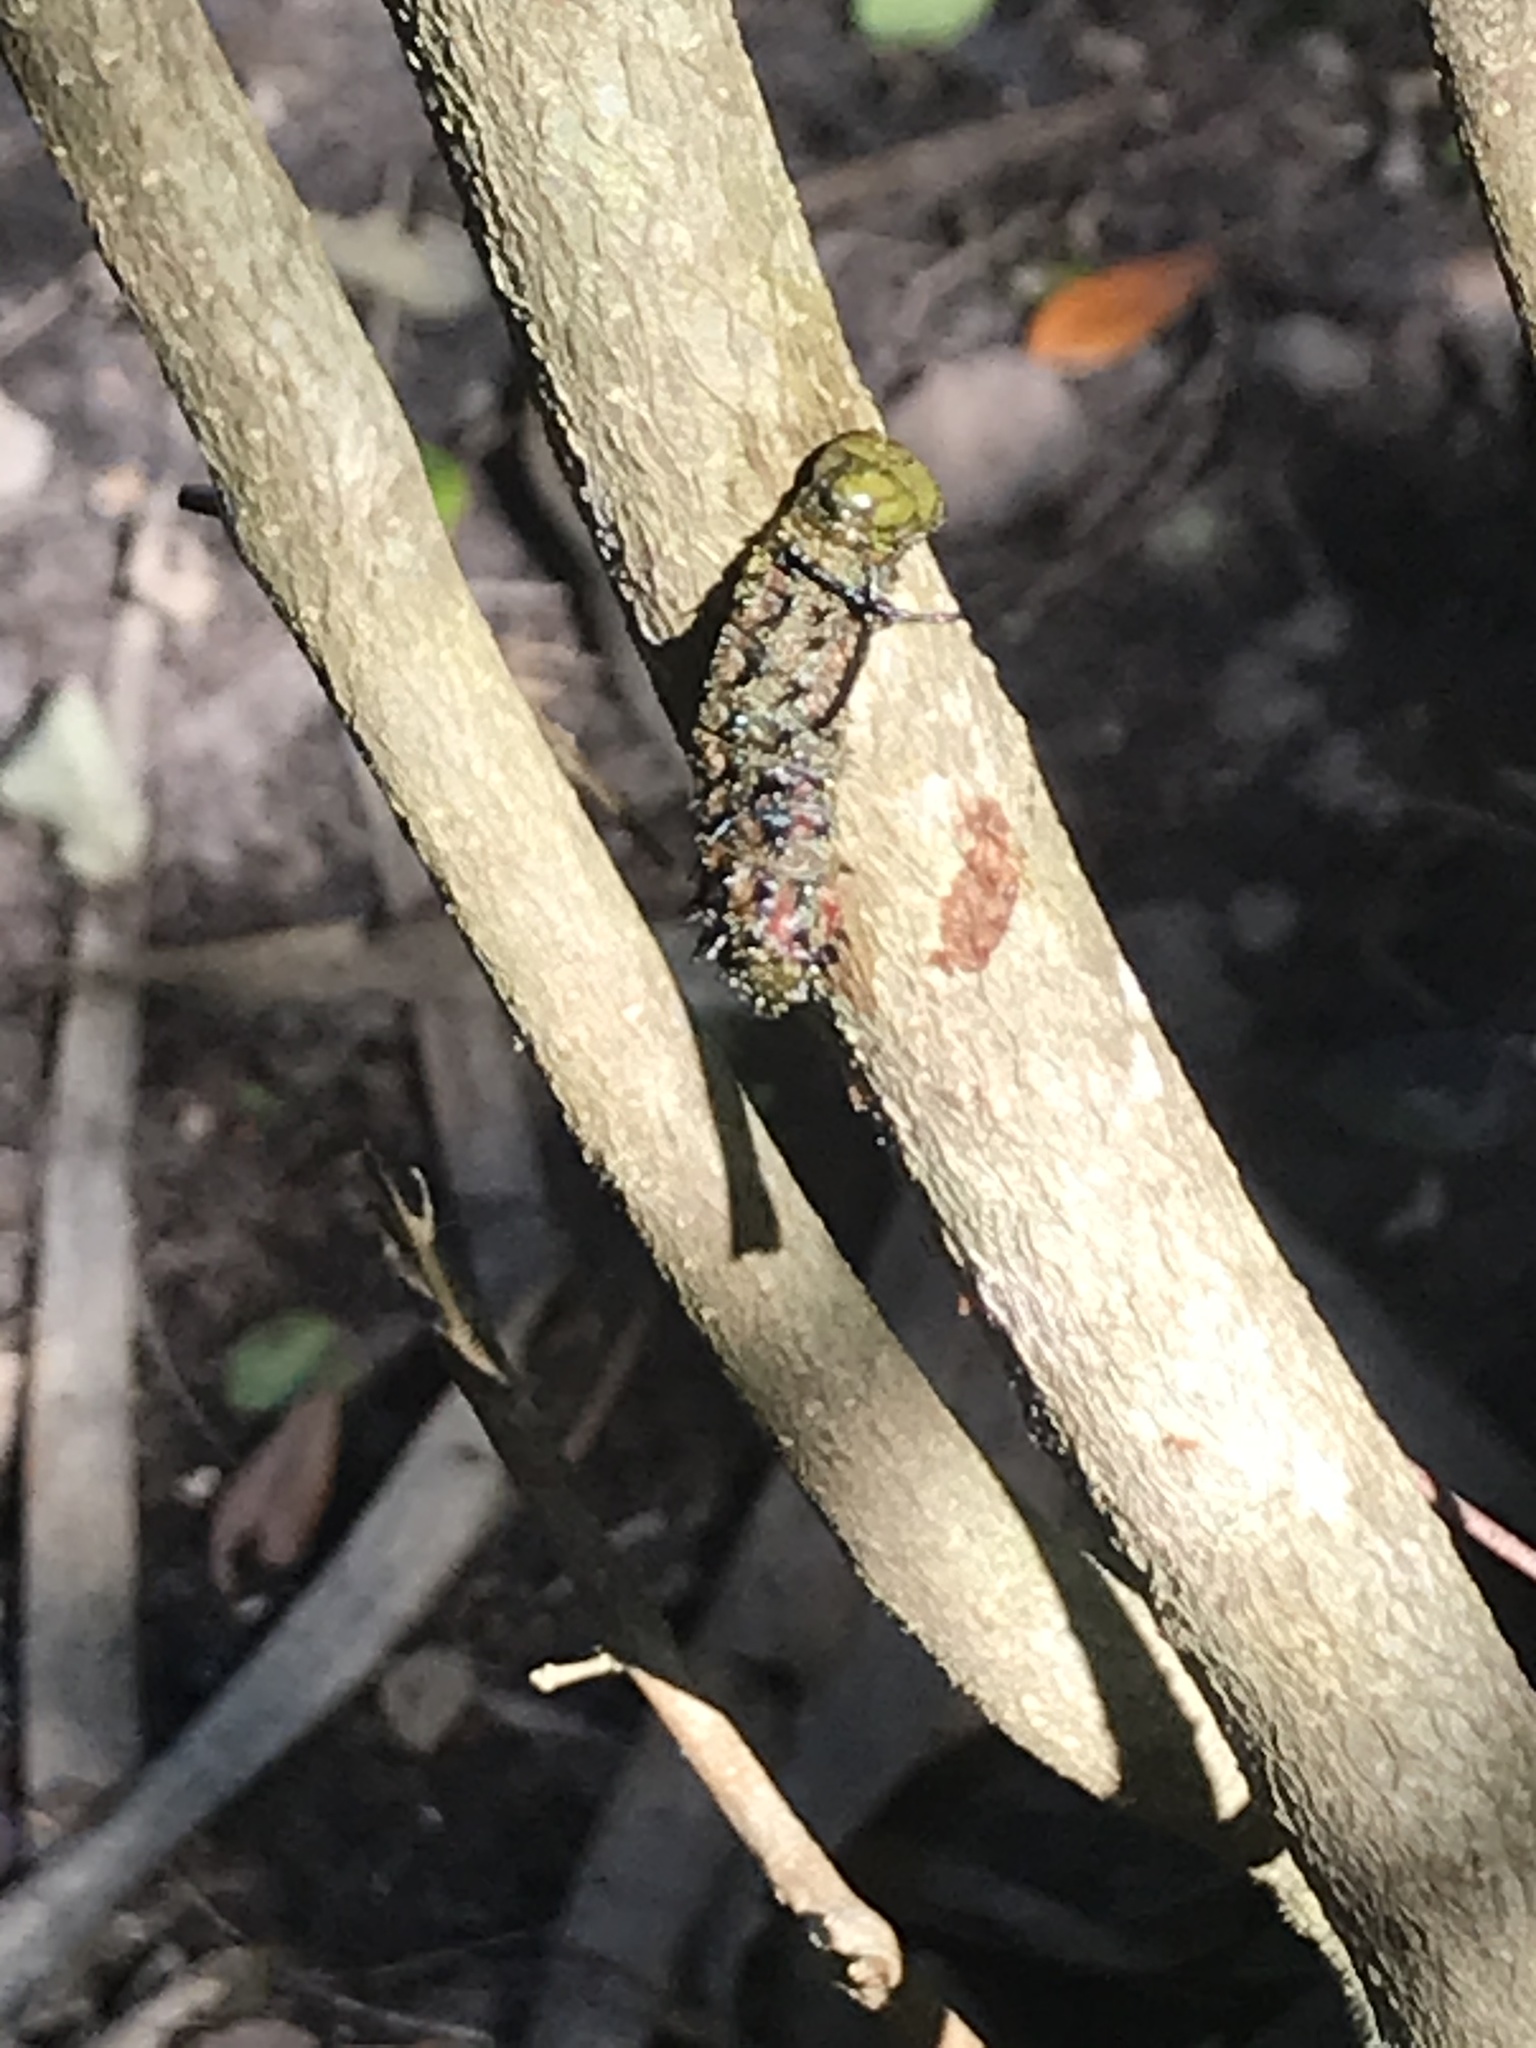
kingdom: Animalia
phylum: Arthropoda
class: Insecta
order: Lepidoptera
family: Saturniidae
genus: Anisota
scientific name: Anisota virginiensis
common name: Pink striped oakworm moth
